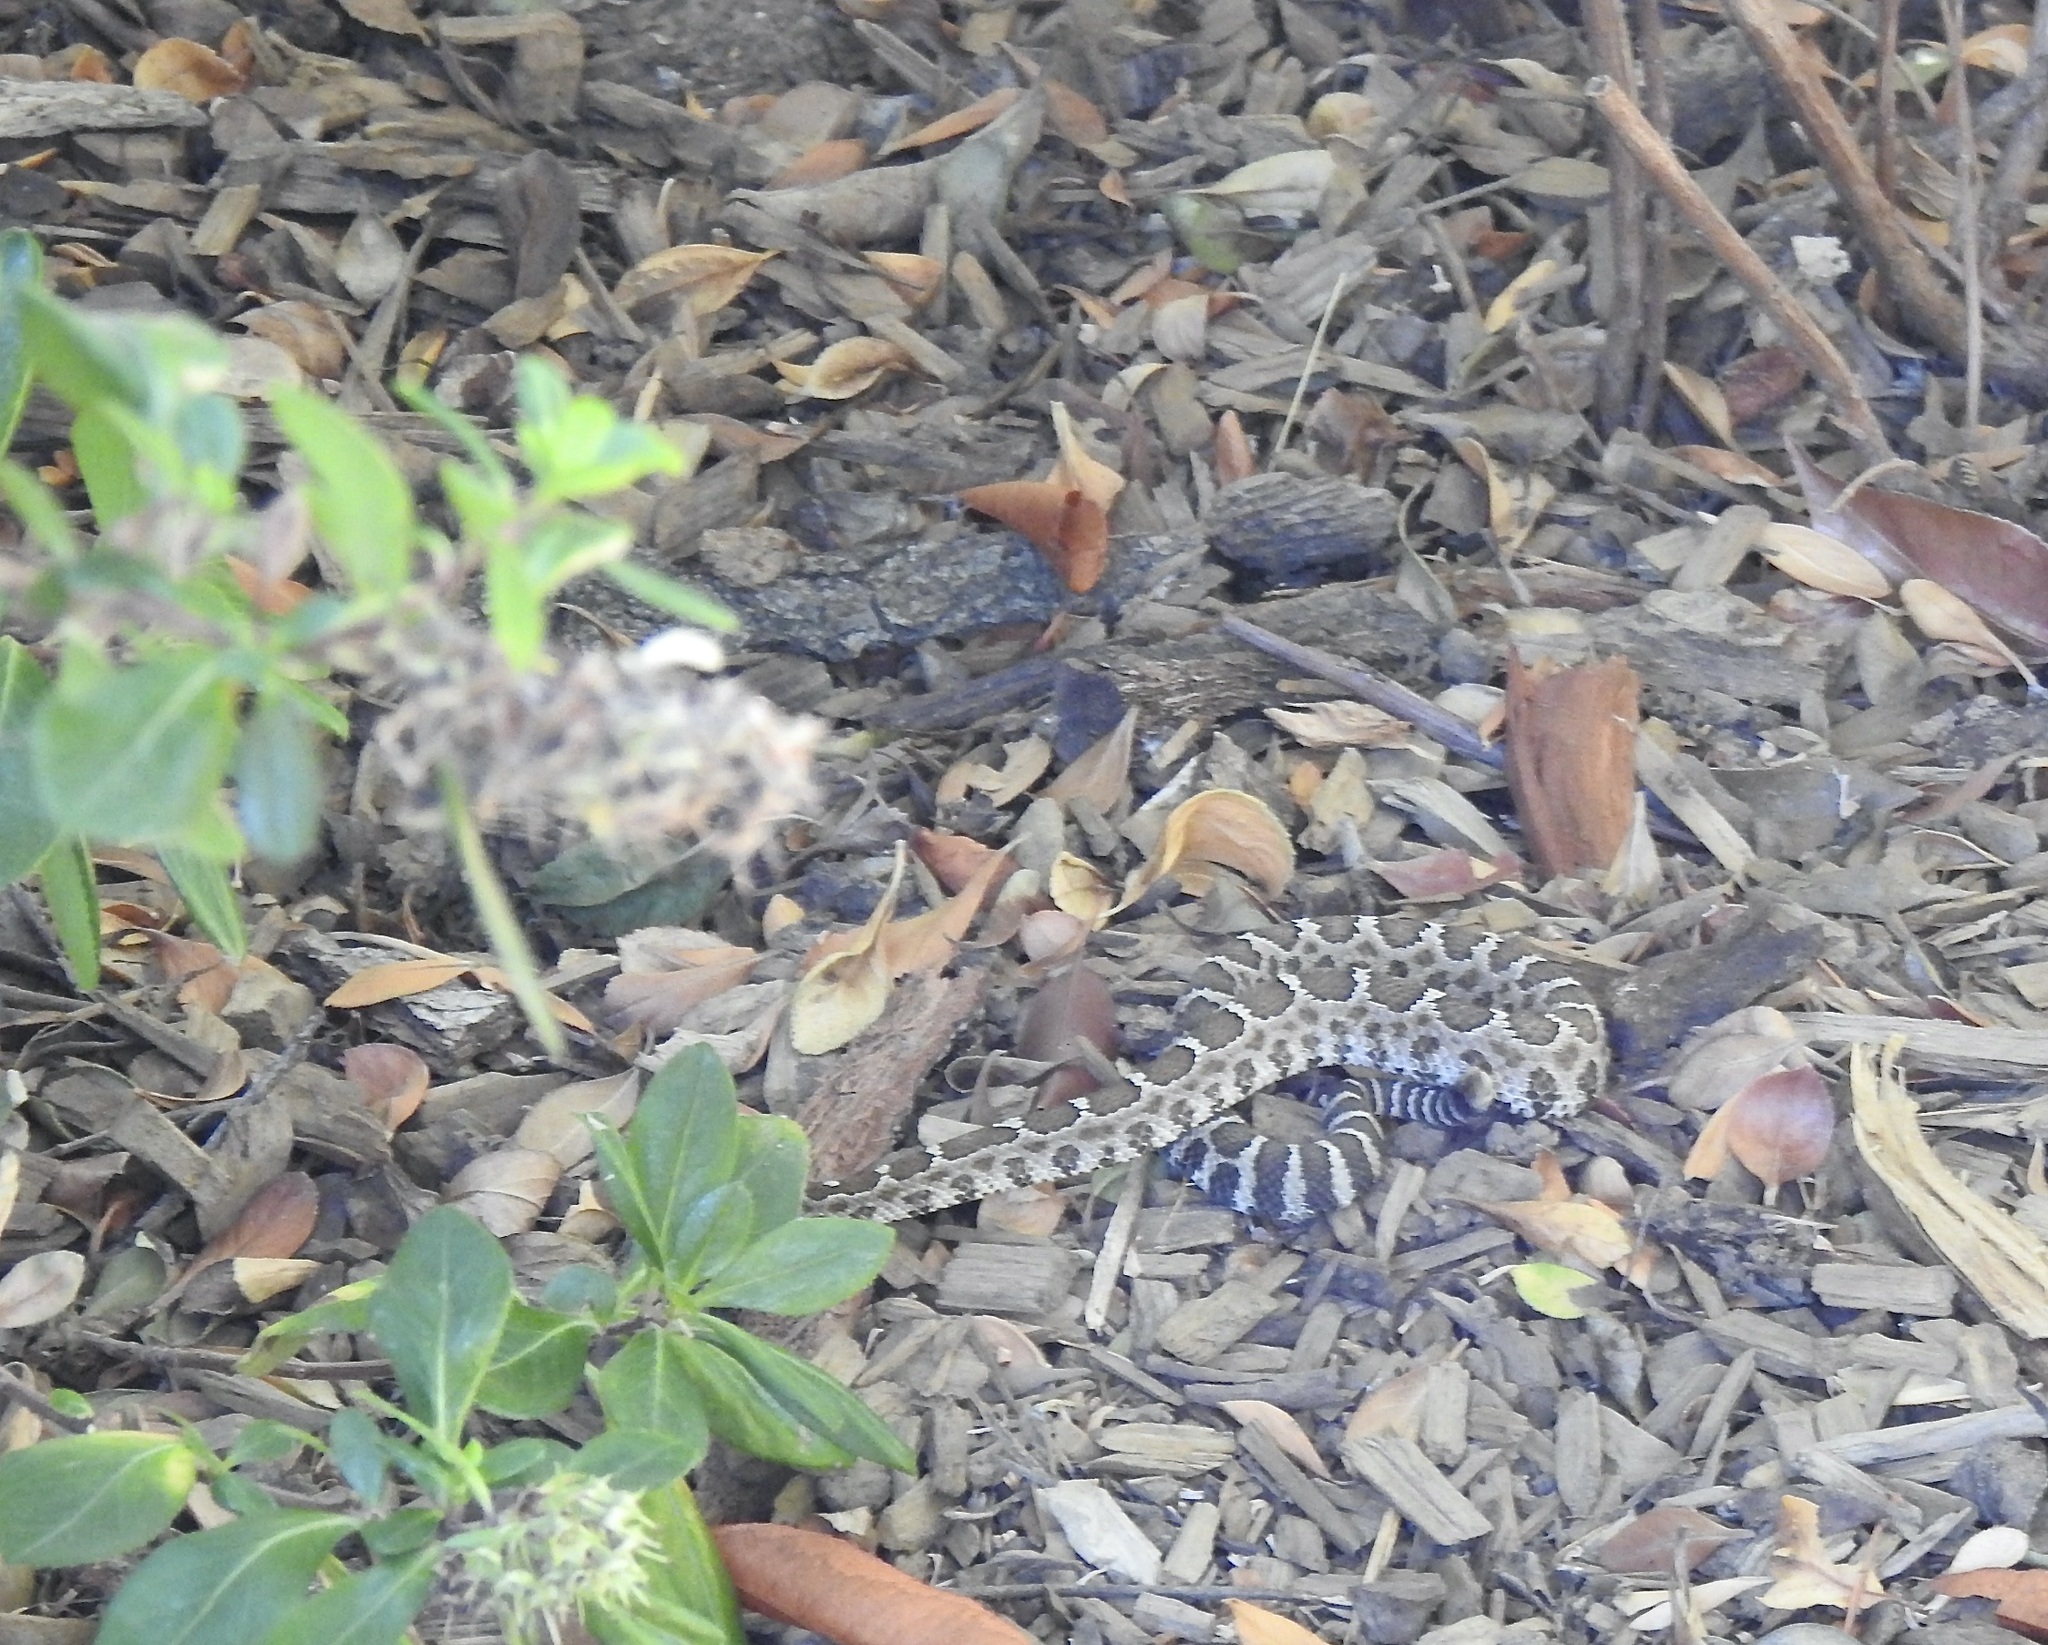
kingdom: Animalia
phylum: Chordata
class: Squamata
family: Viperidae
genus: Crotalus
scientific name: Crotalus oreganus
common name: Abyssus
